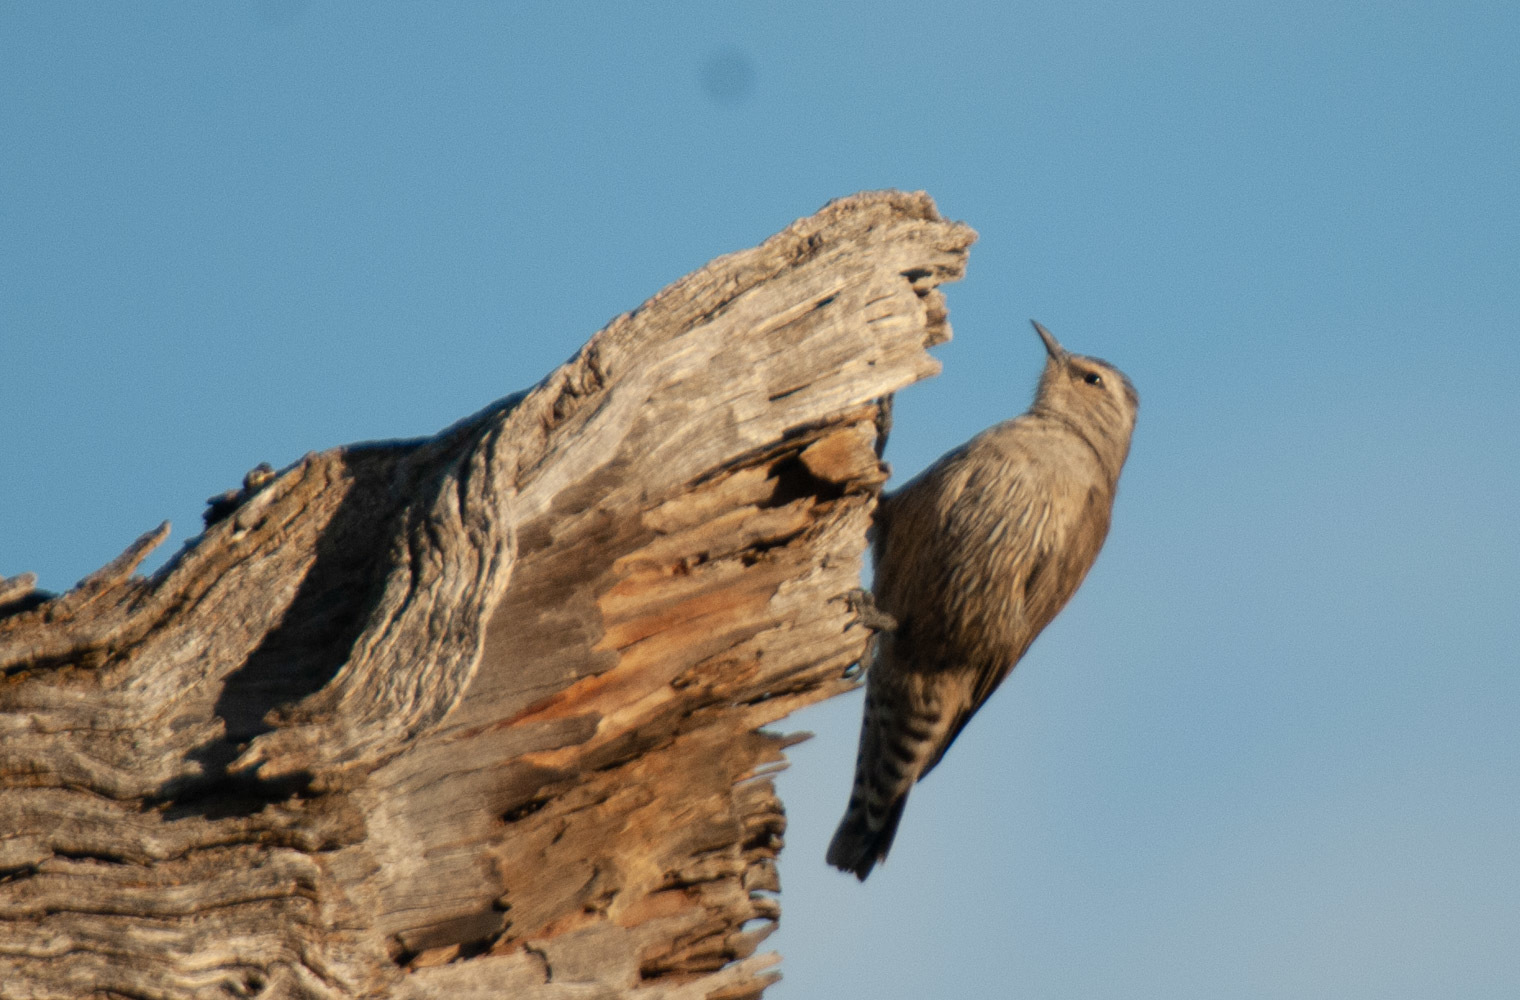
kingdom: Animalia
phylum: Chordata
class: Aves
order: Passeriformes
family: Climacteridae
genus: Climacteris
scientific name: Climacteris picumnus
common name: Brown treecreeper
